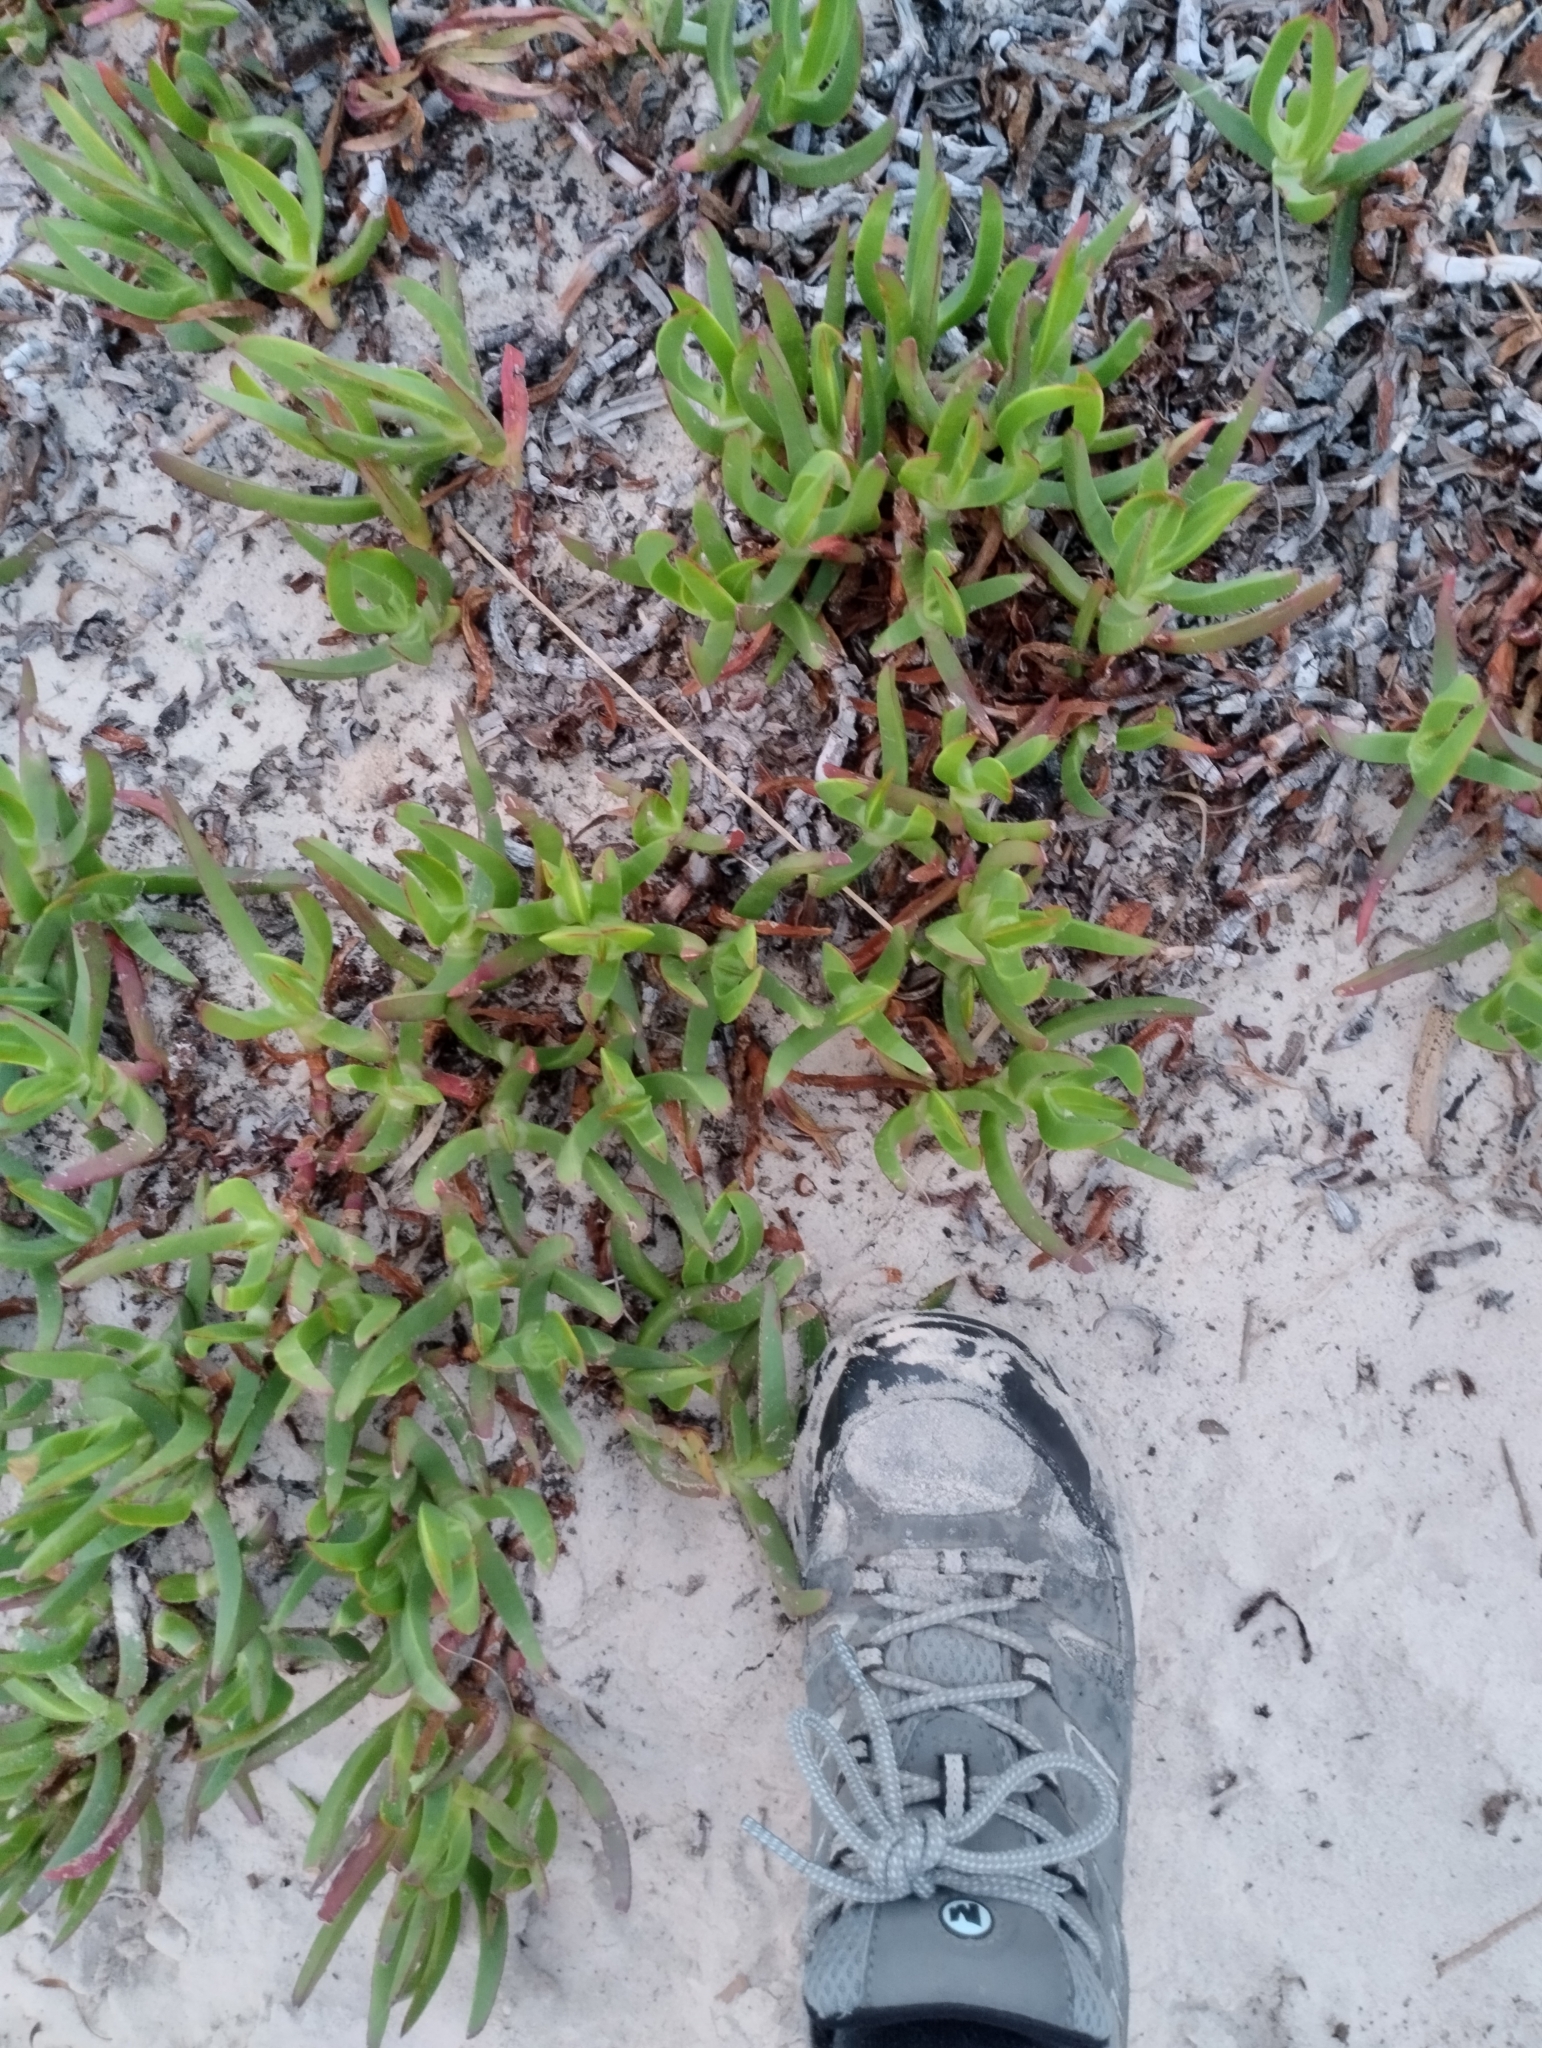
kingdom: Plantae
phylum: Tracheophyta
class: Magnoliopsida
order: Caryophyllales
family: Aizoaceae
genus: Carpobrotus
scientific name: Carpobrotus edulis
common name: Hottentot-fig
